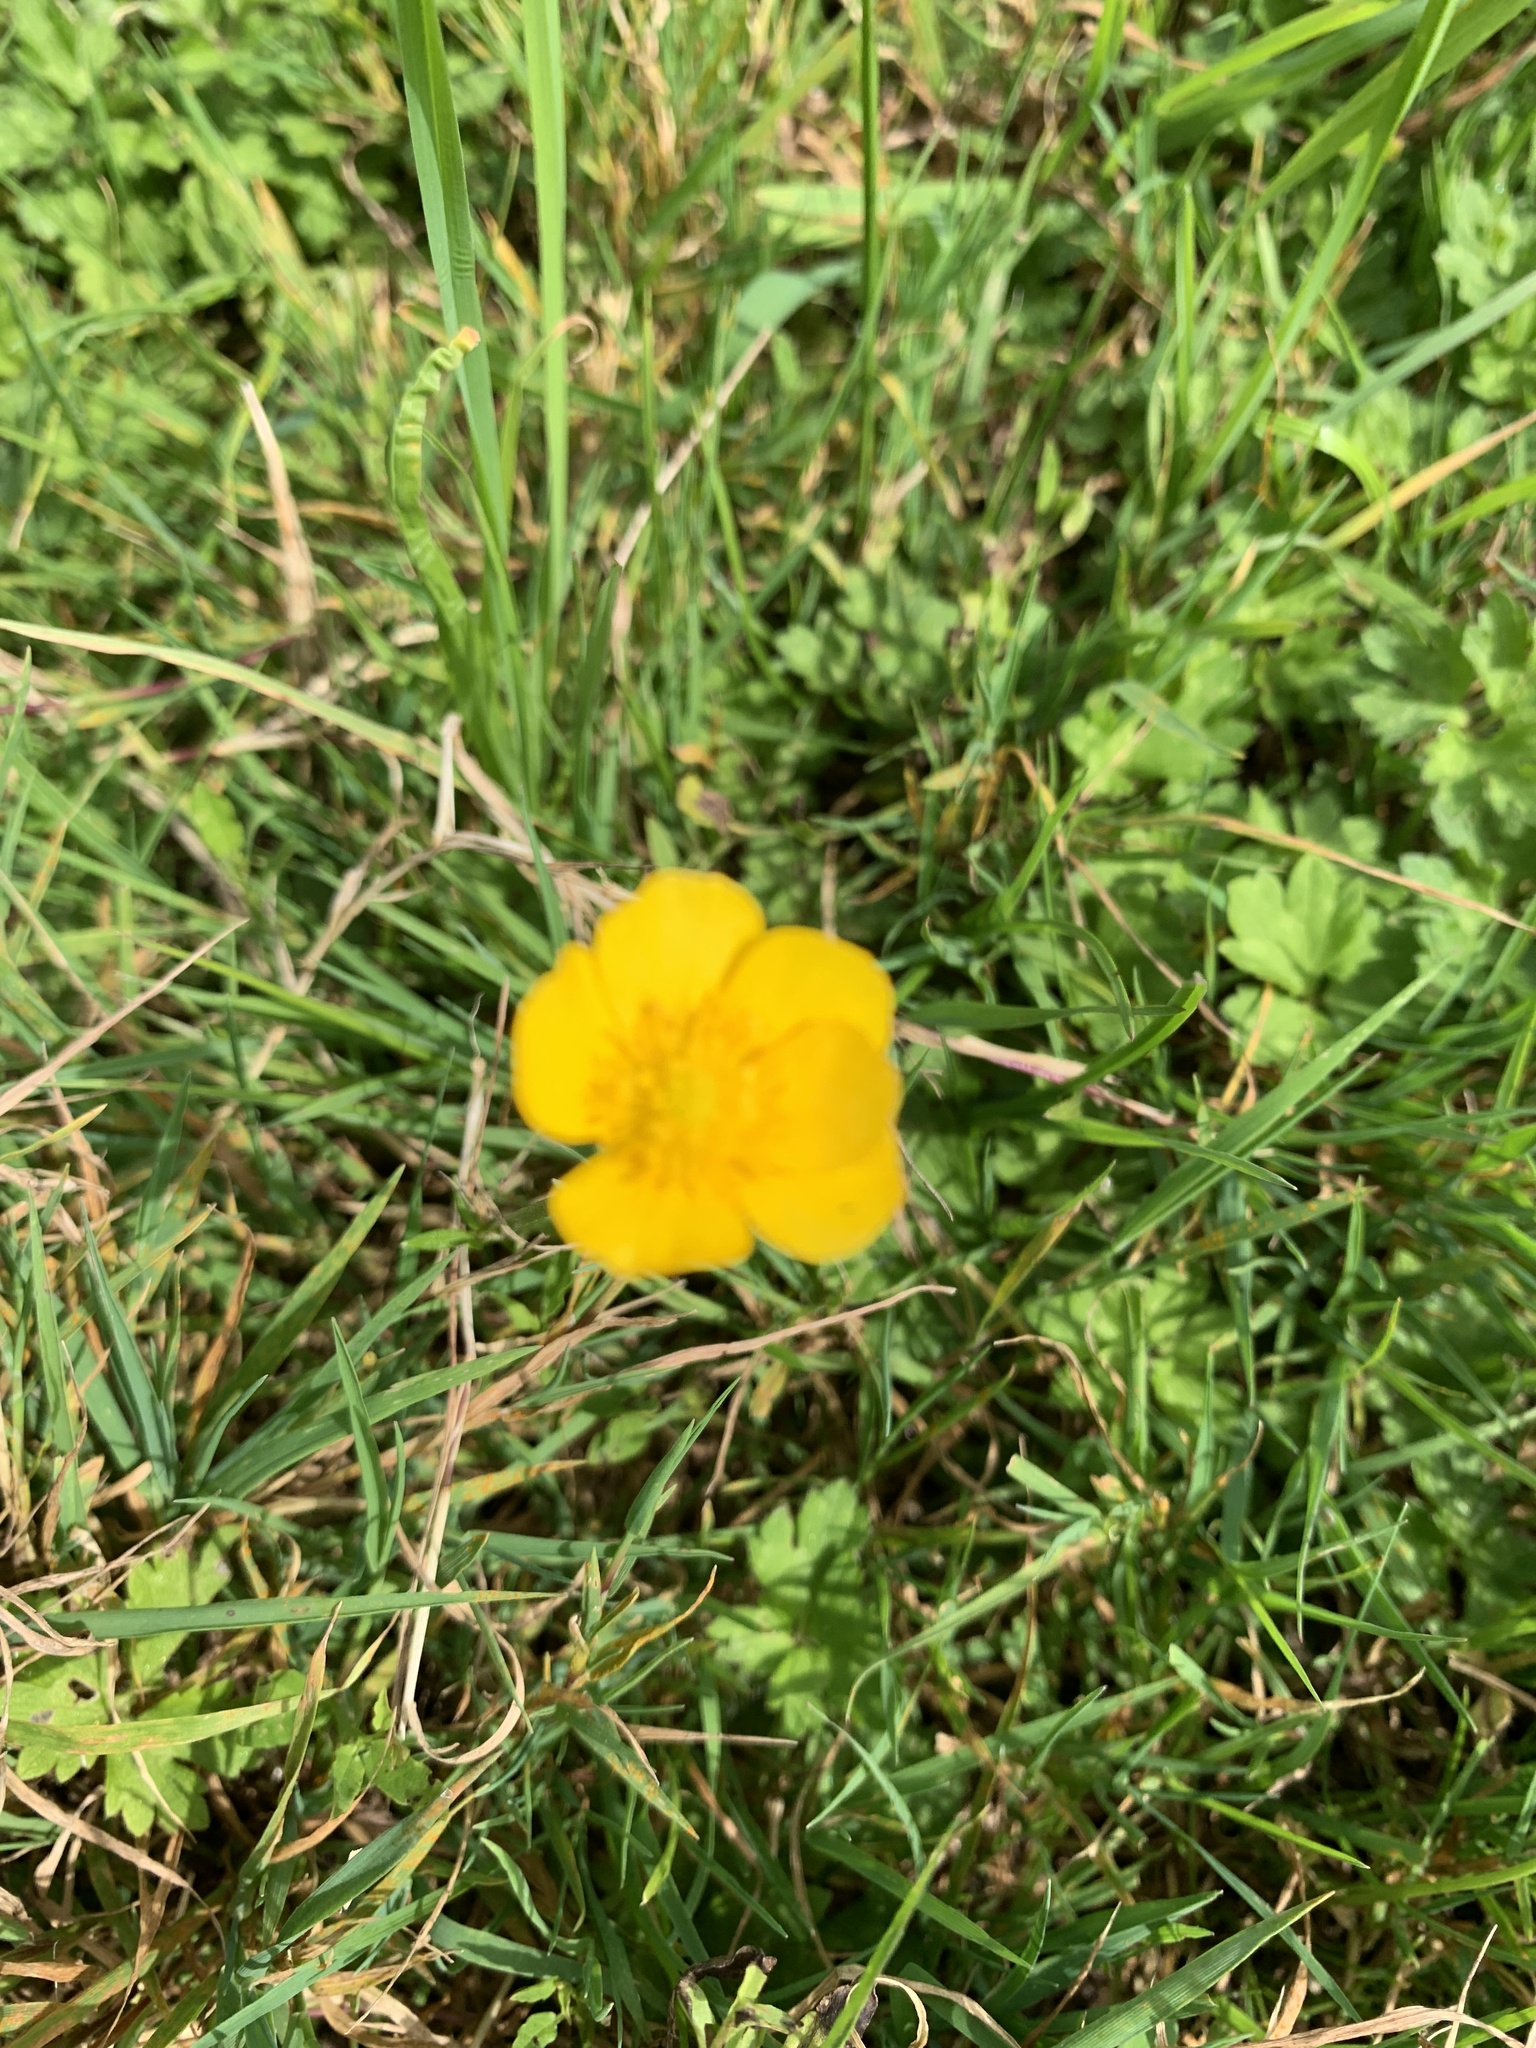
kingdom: Plantae
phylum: Tracheophyta
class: Magnoliopsida
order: Ranunculales
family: Ranunculaceae
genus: Ranunculus
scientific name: Ranunculus acris
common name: Meadow buttercup
